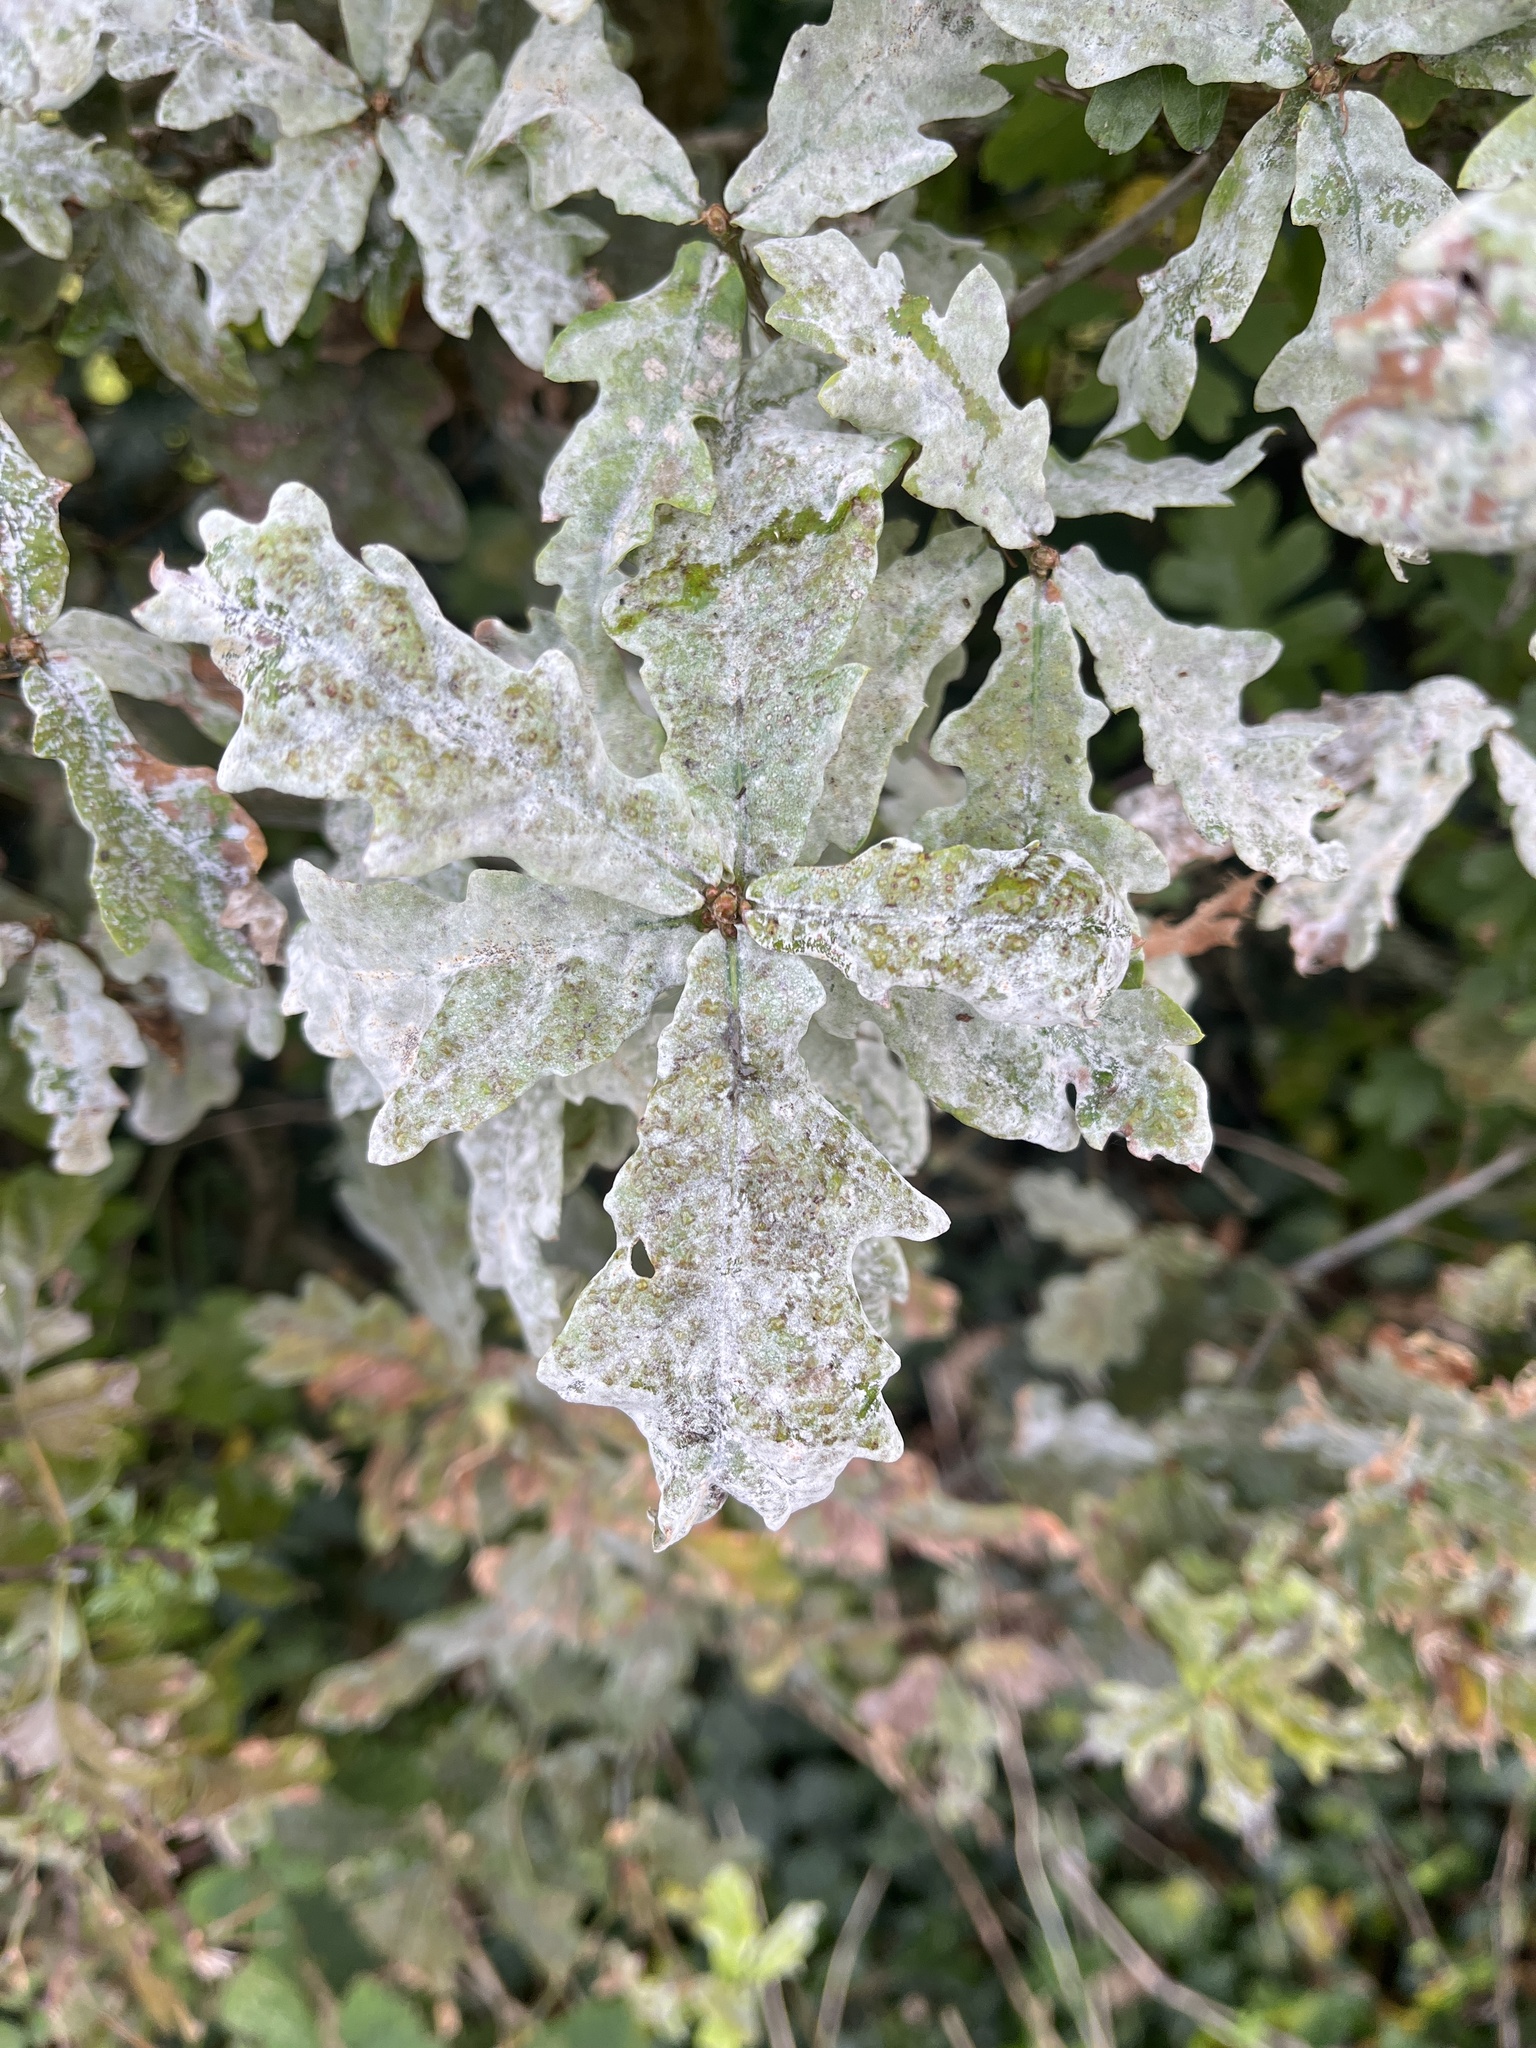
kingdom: Fungi
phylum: Ascomycota
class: Leotiomycetes
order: Helotiales
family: Erysiphaceae
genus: Erysiphe
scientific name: Erysiphe alphitoides
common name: Oak mildew
